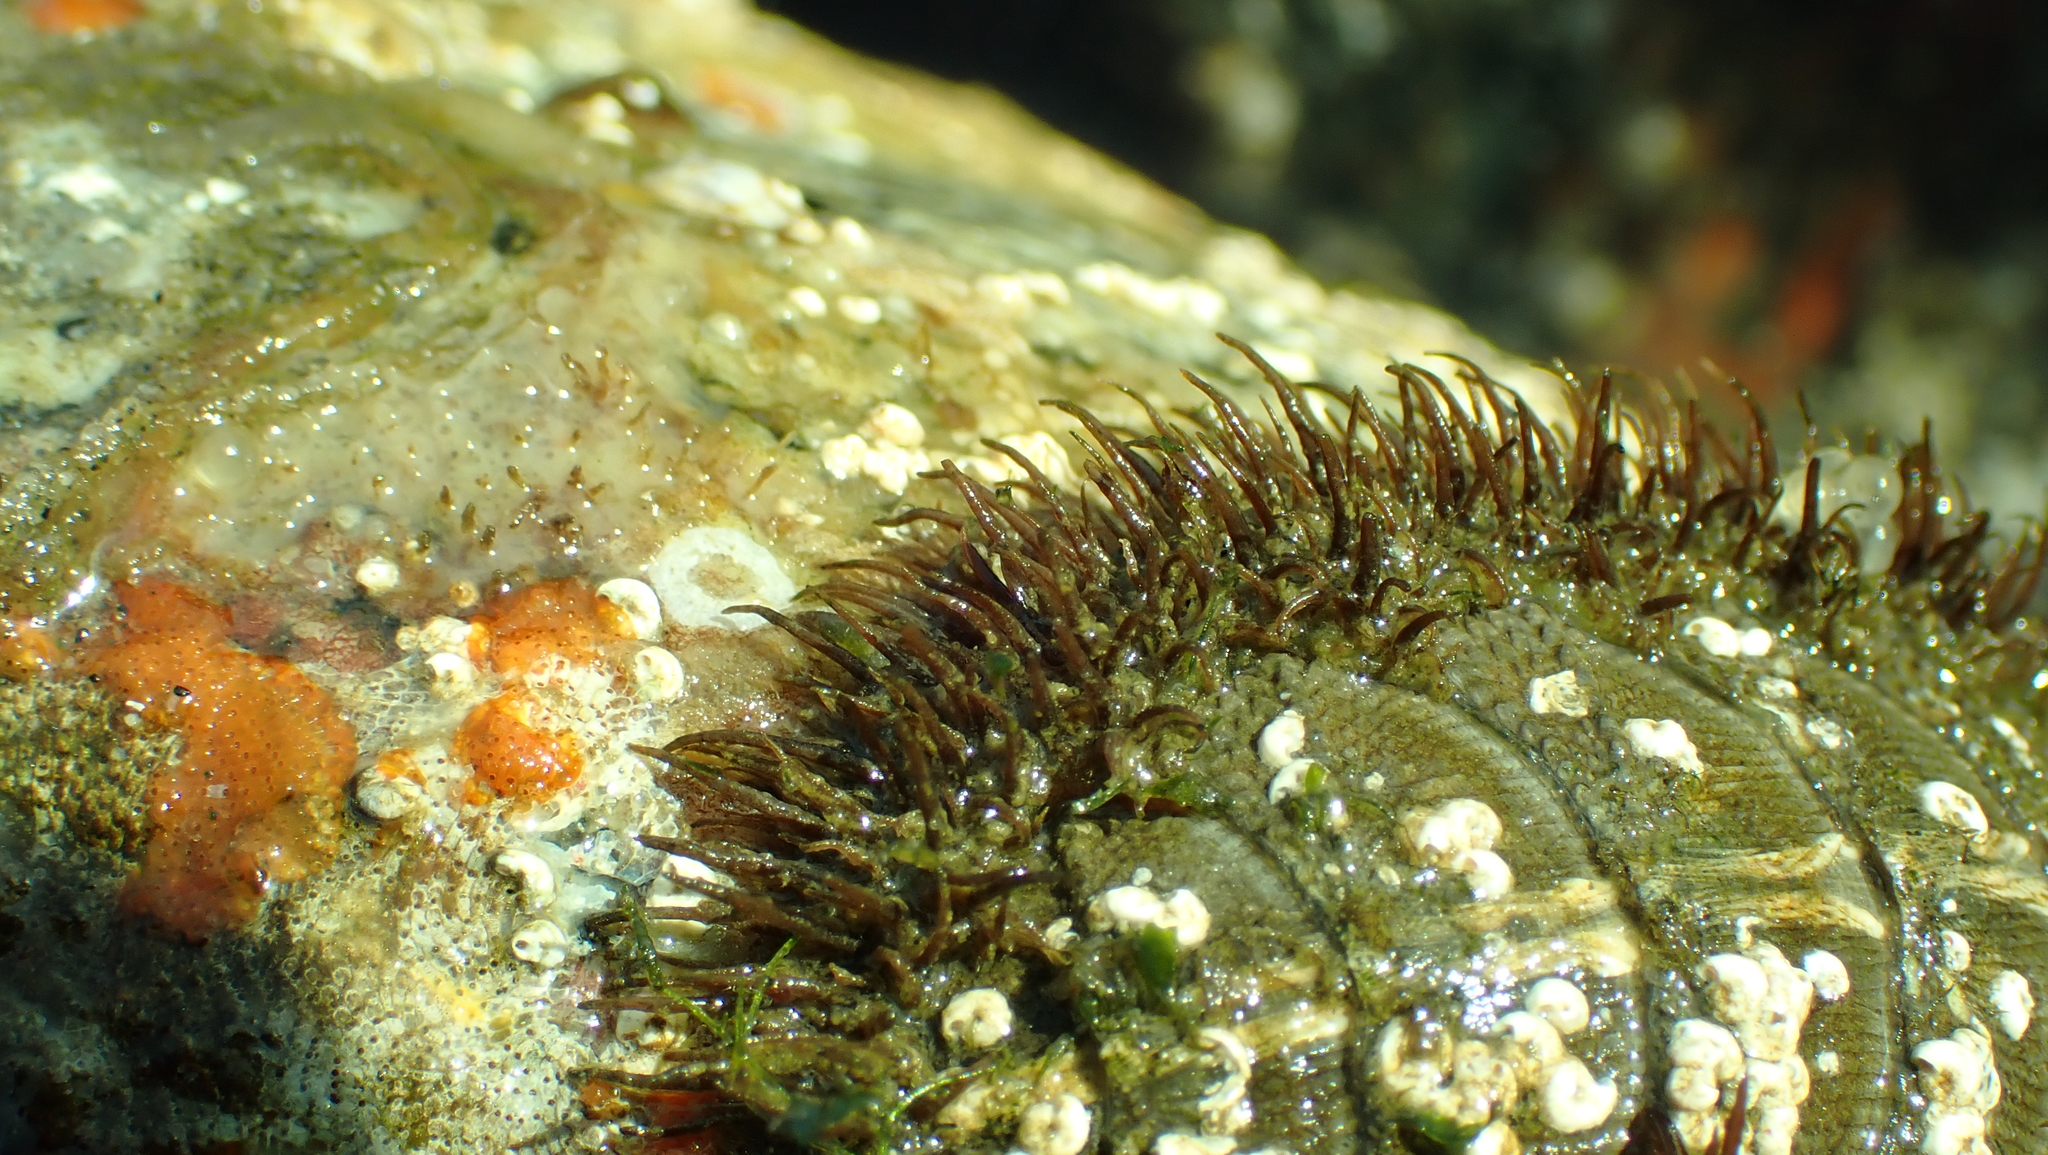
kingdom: Animalia
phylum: Mollusca
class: Polyplacophora
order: Chitonida
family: Mopaliidae
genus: Mopalia
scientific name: Mopalia muscosa
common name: Mossy chiton
